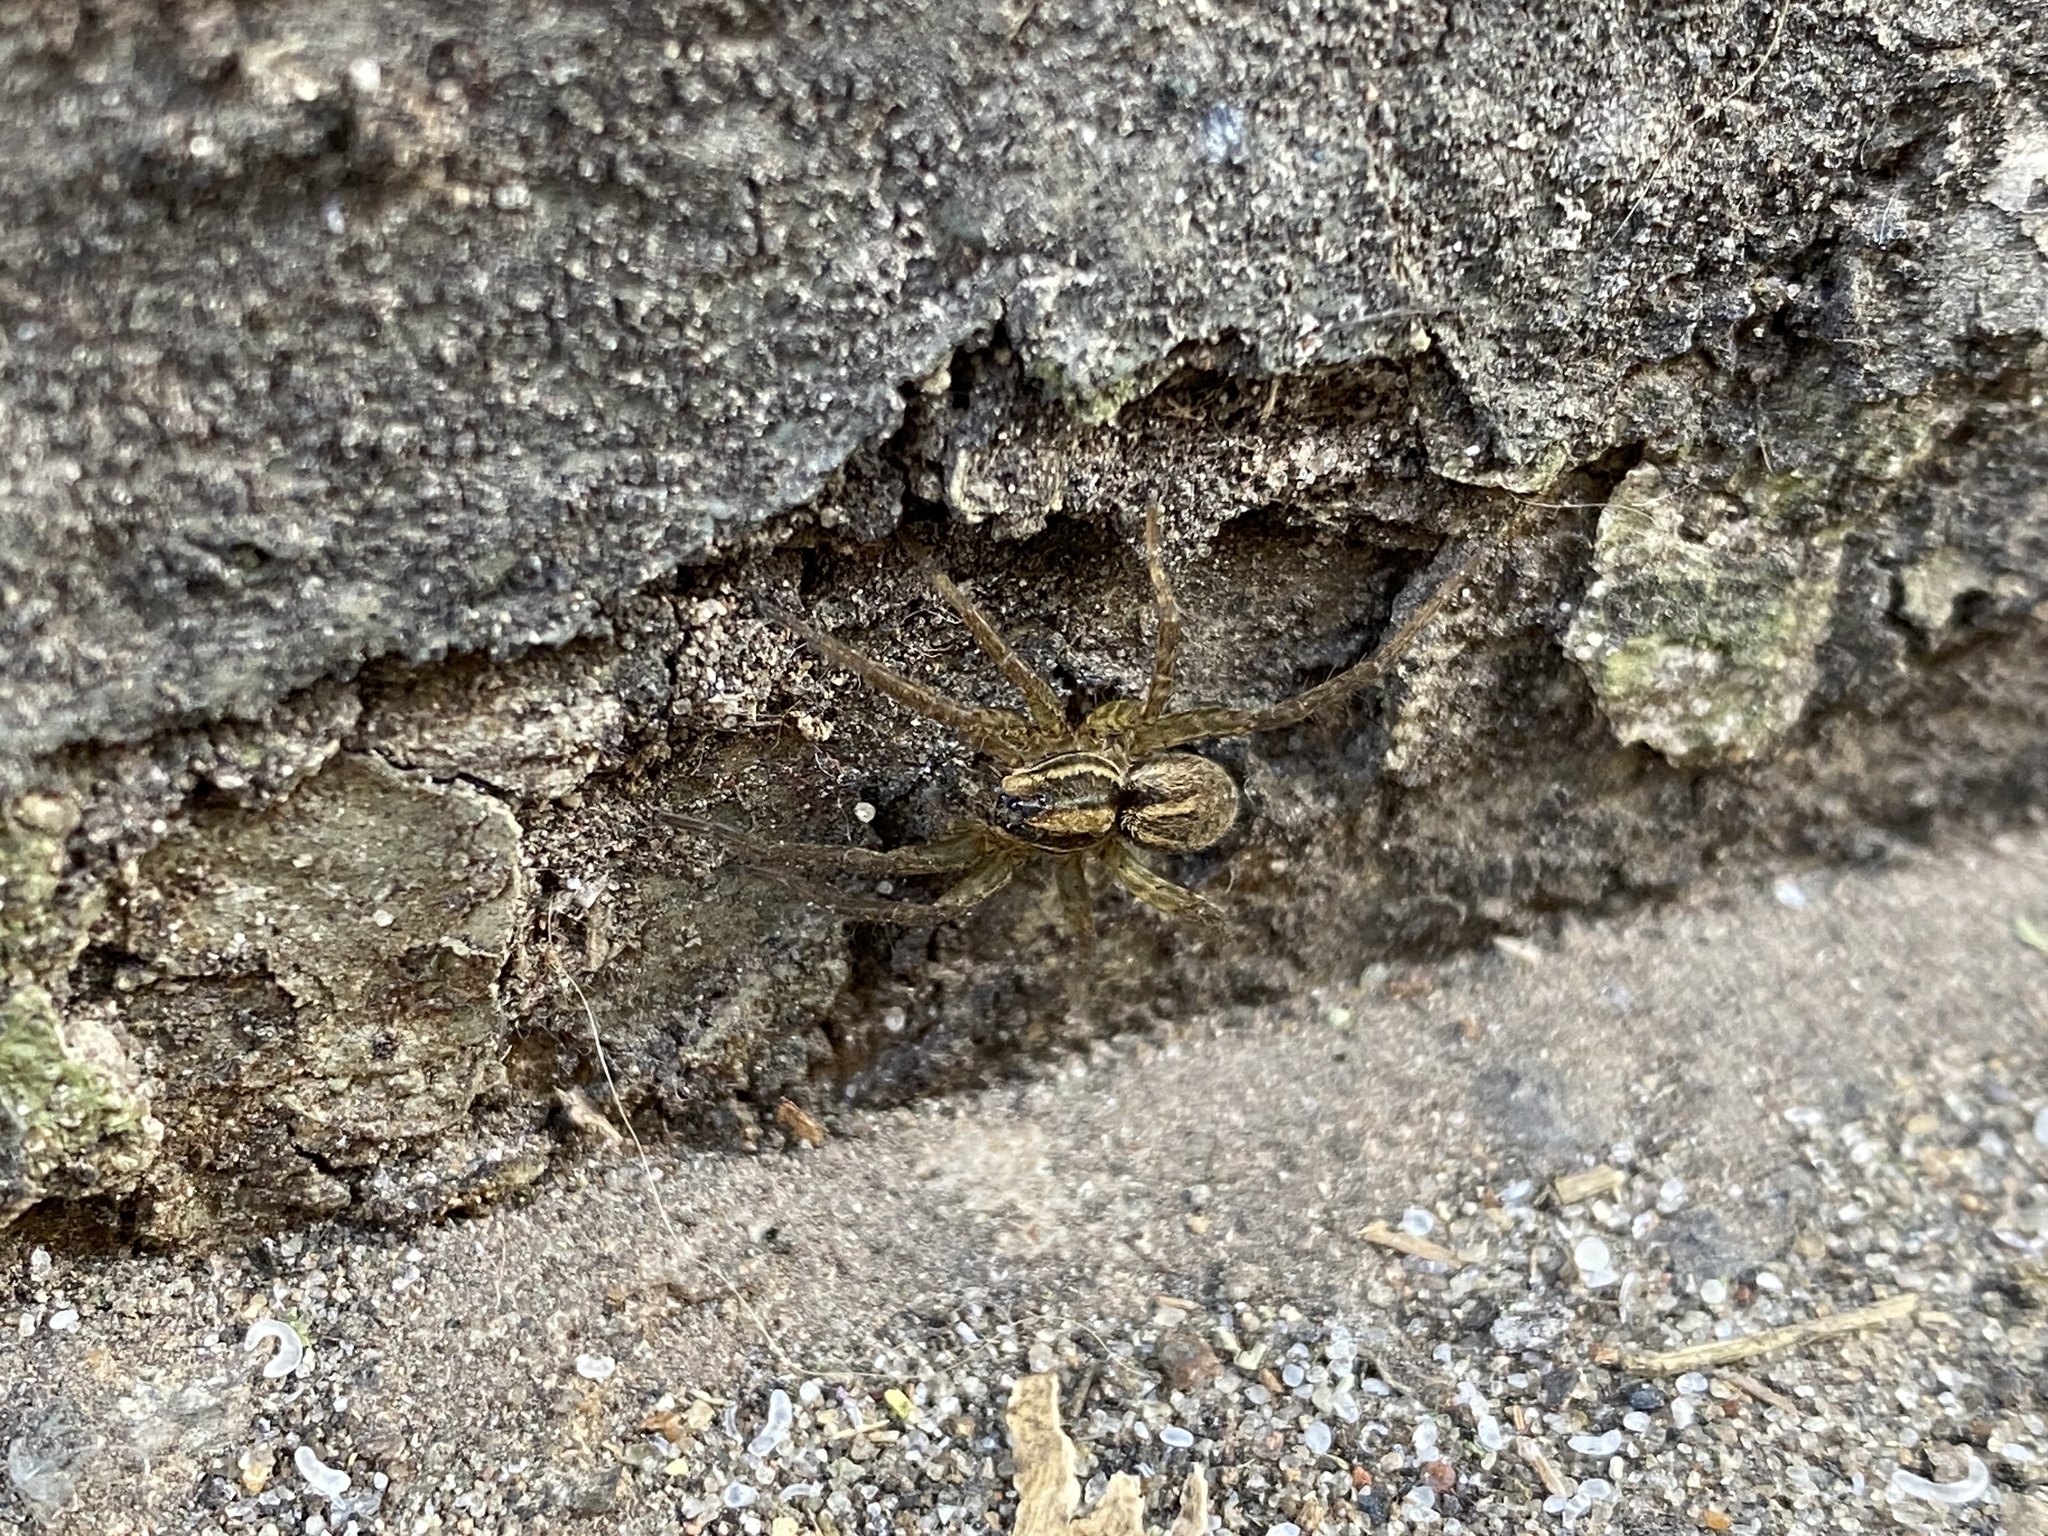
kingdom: Animalia
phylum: Arthropoda
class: Arachnida
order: Araneae
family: Lycosidae
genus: Alopecosa
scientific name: Alopecosa moesta
